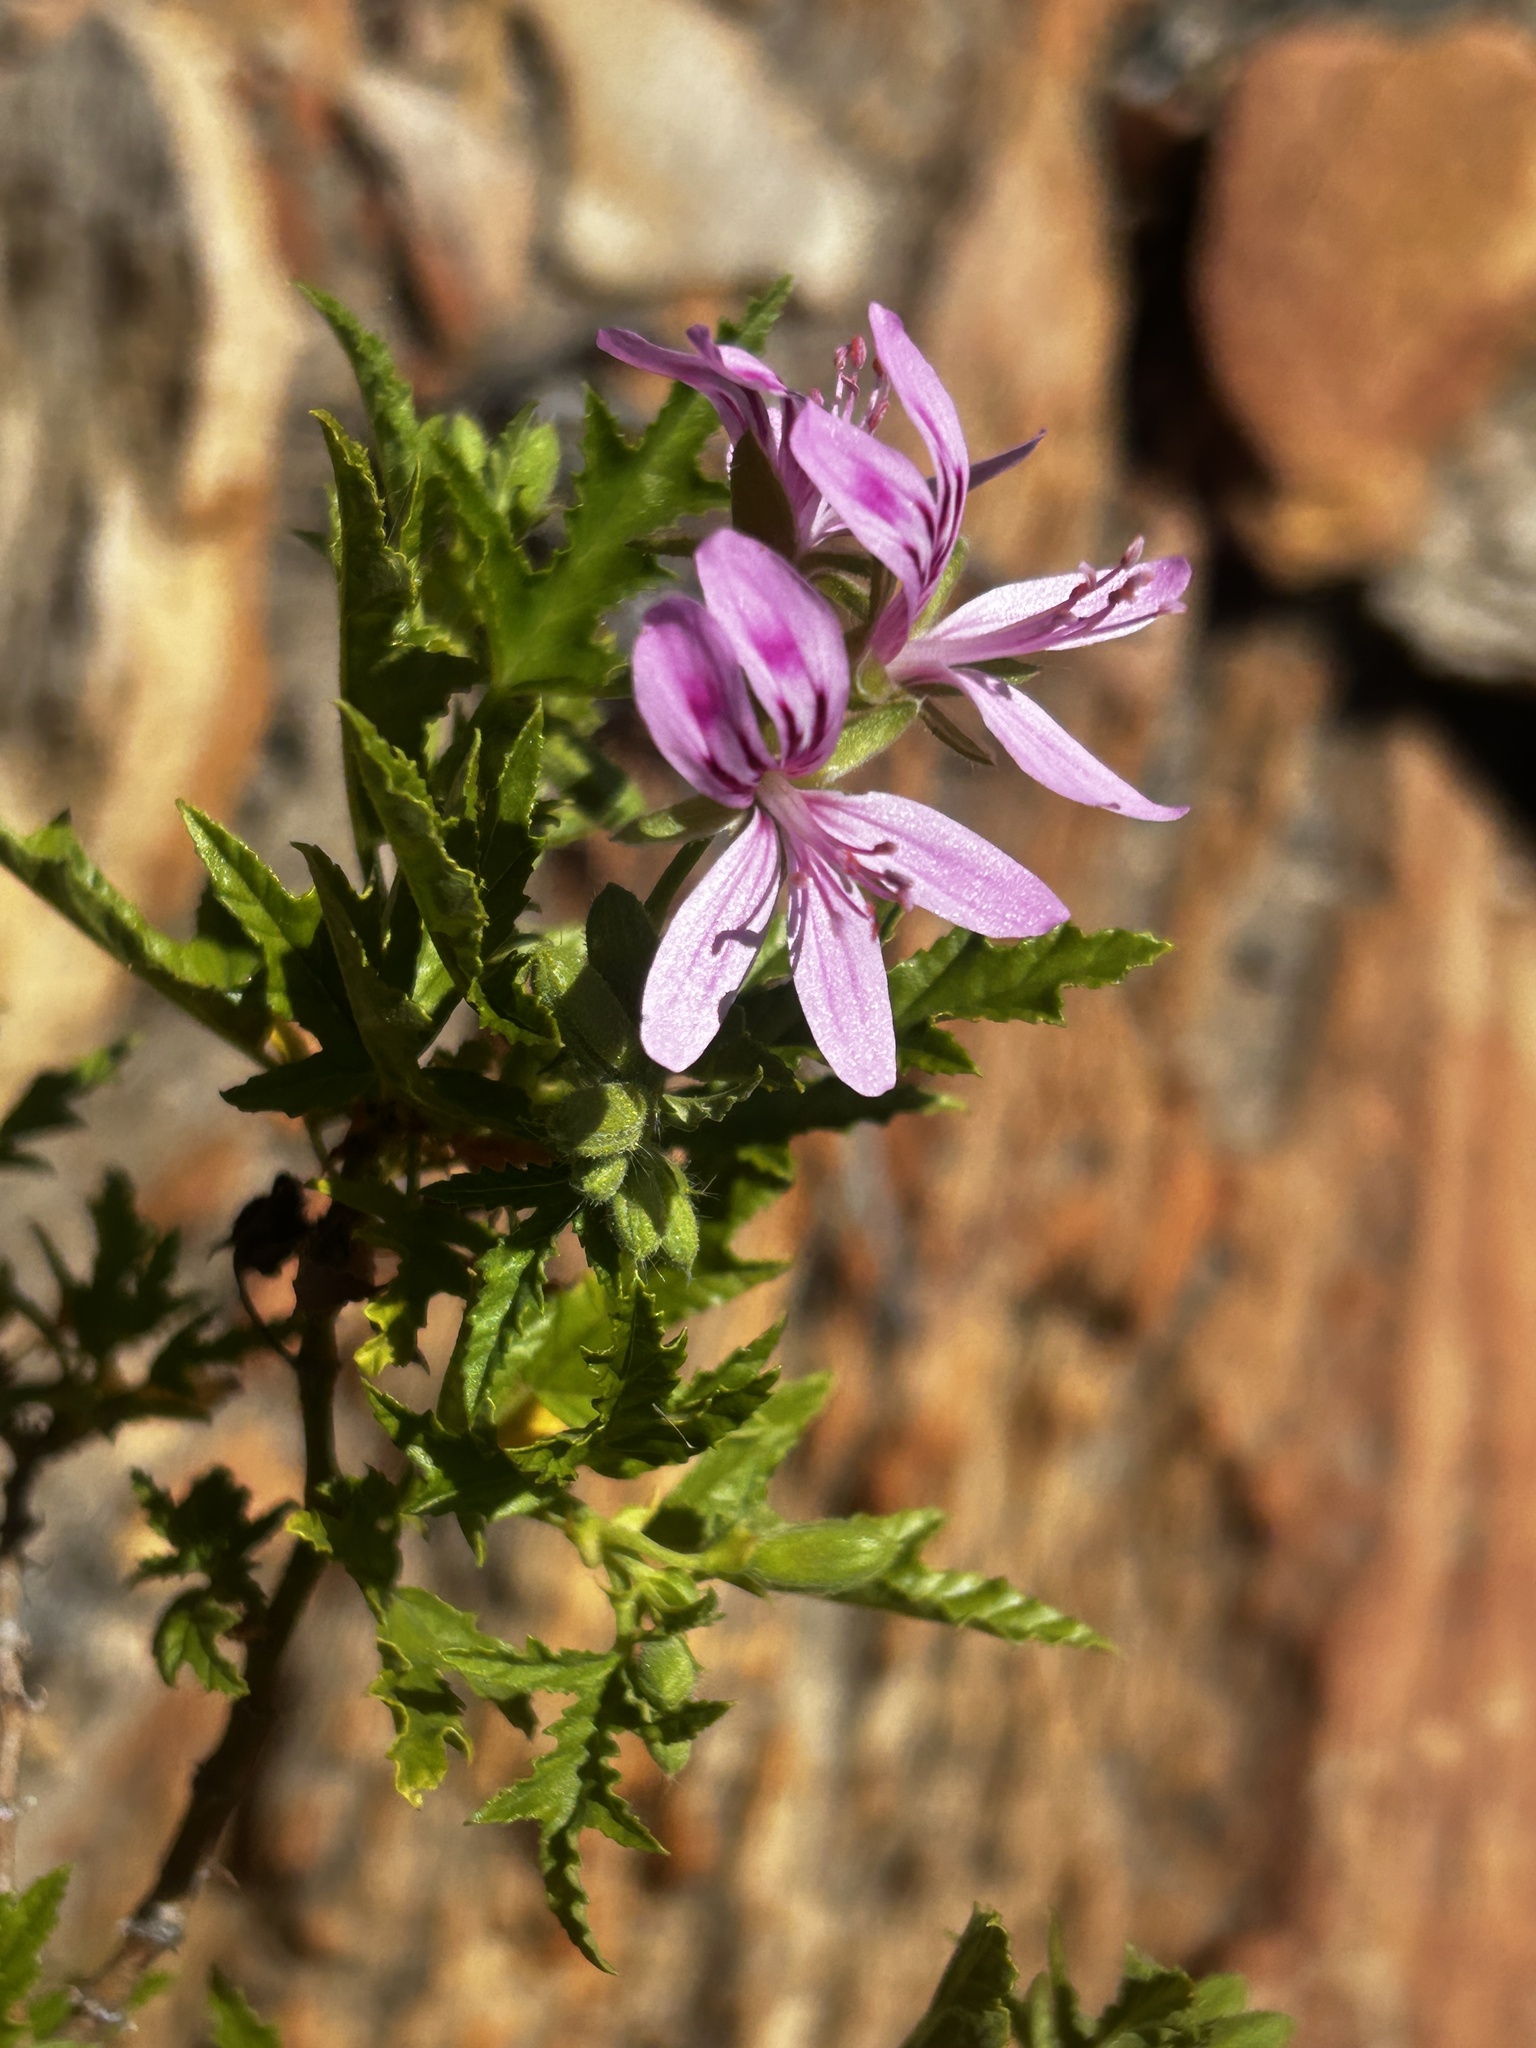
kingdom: Plantae
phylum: Tracheophyta
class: Magnoliopsida
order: Geraniales
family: Geraniaceae
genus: Pelargonium
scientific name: Pelargonium glutinosum
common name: Pheasant-foot geranium
